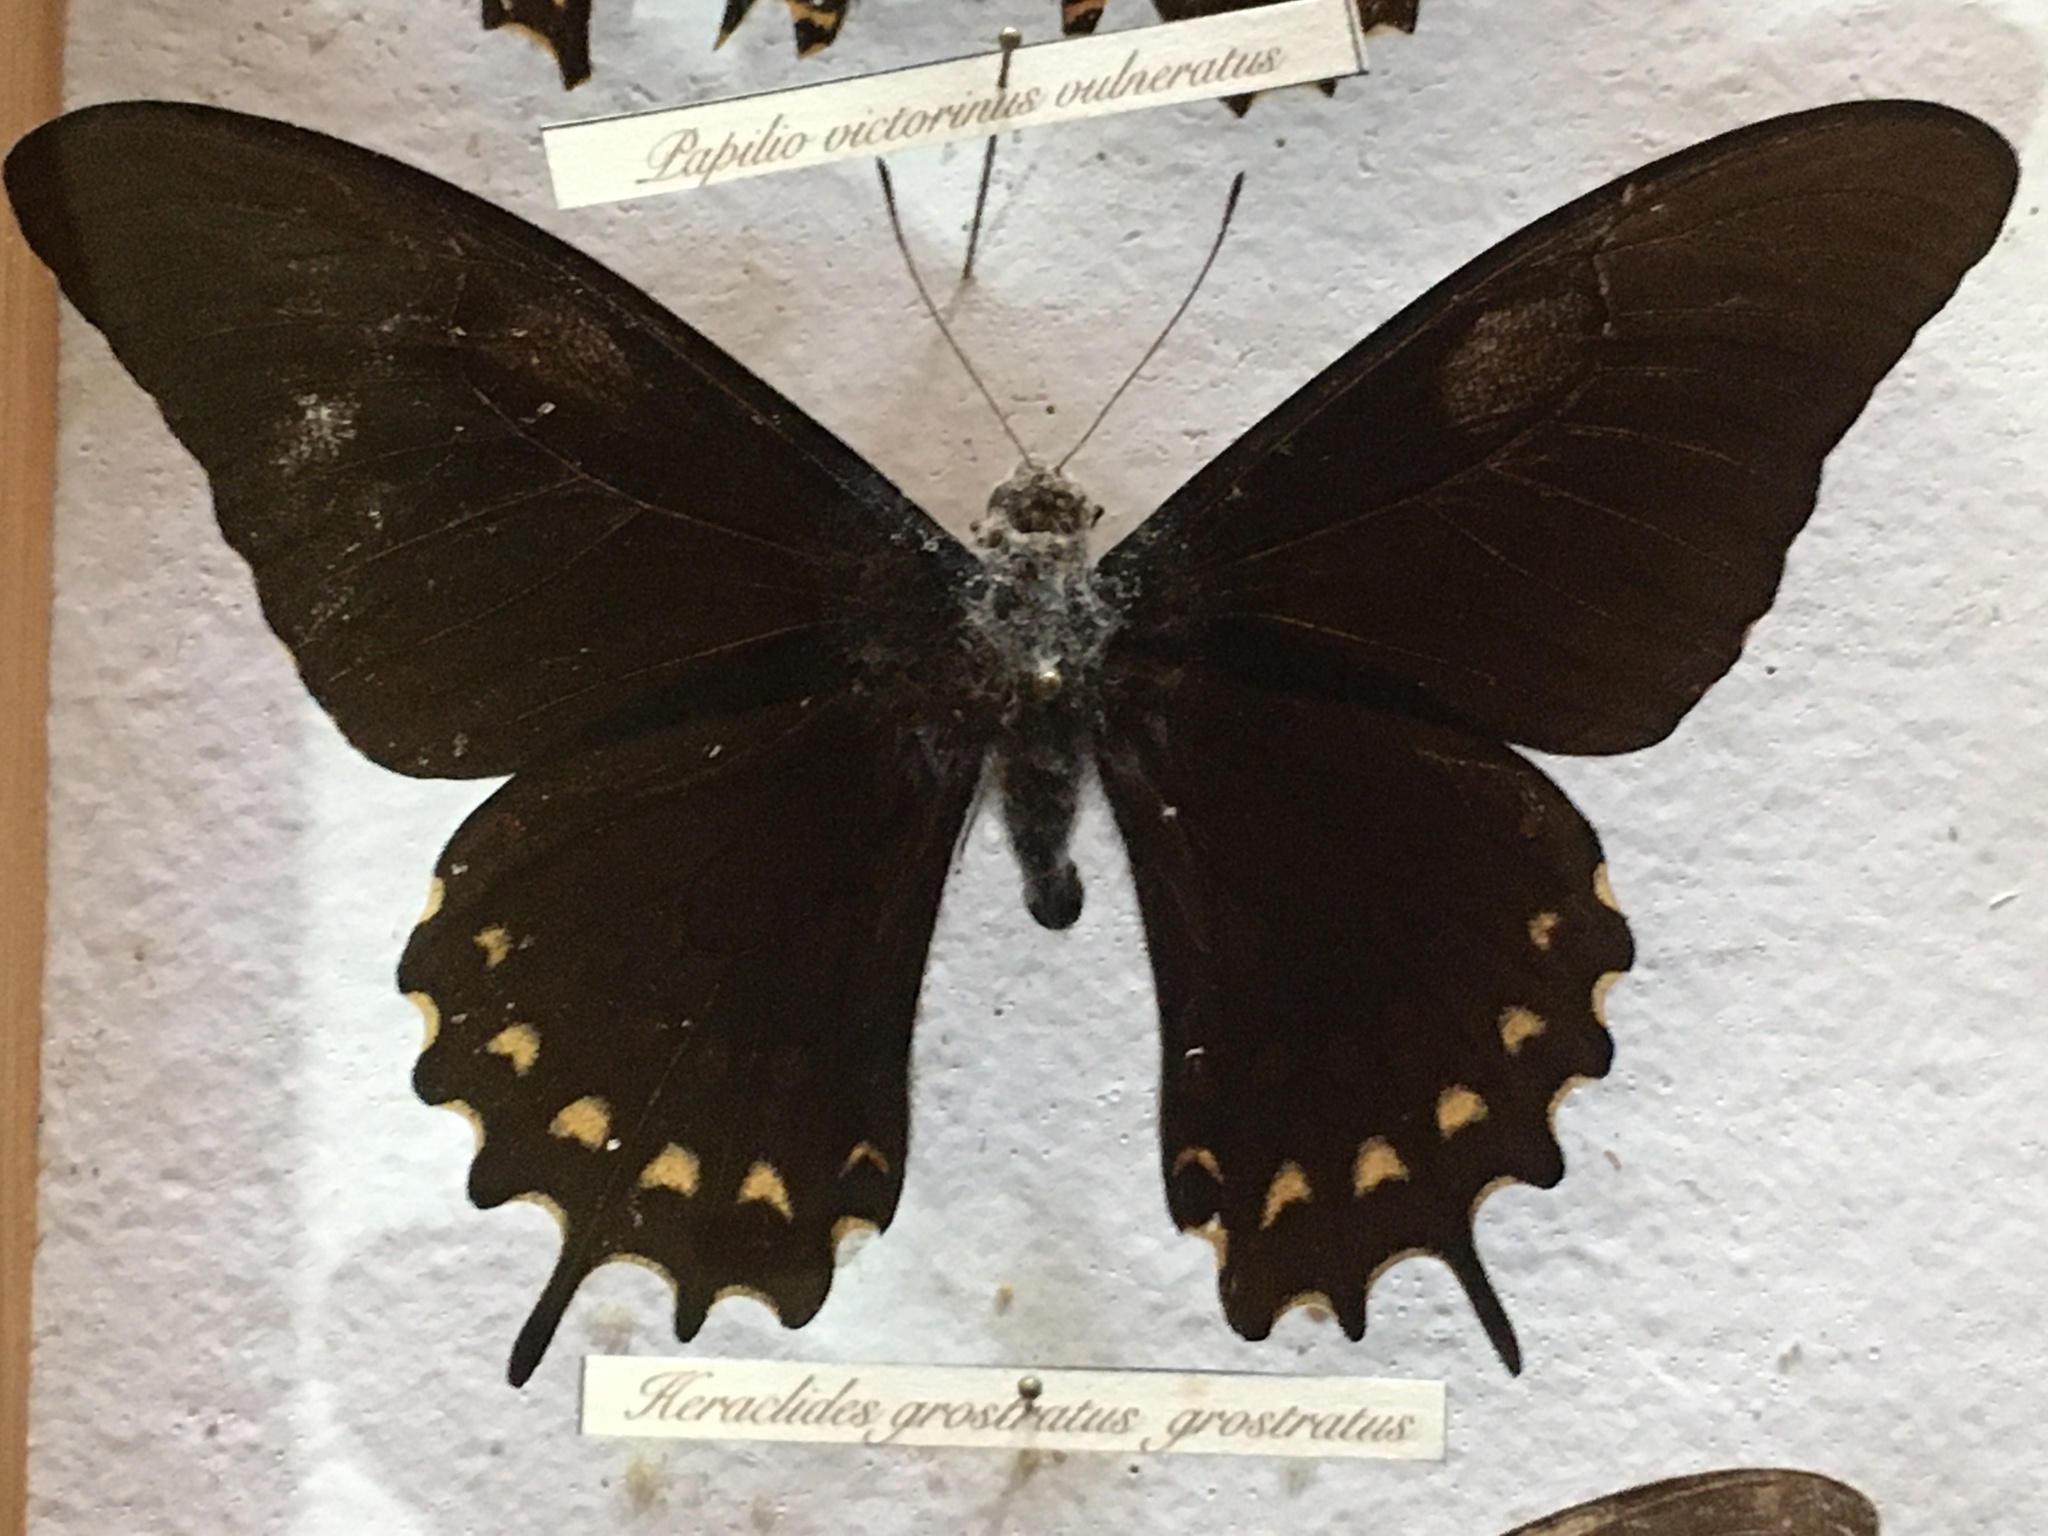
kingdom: Animalia
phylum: Arthropoda
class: Insecta
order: Lepidoptera
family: Papilionidae
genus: Heraclides
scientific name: Heraclides
